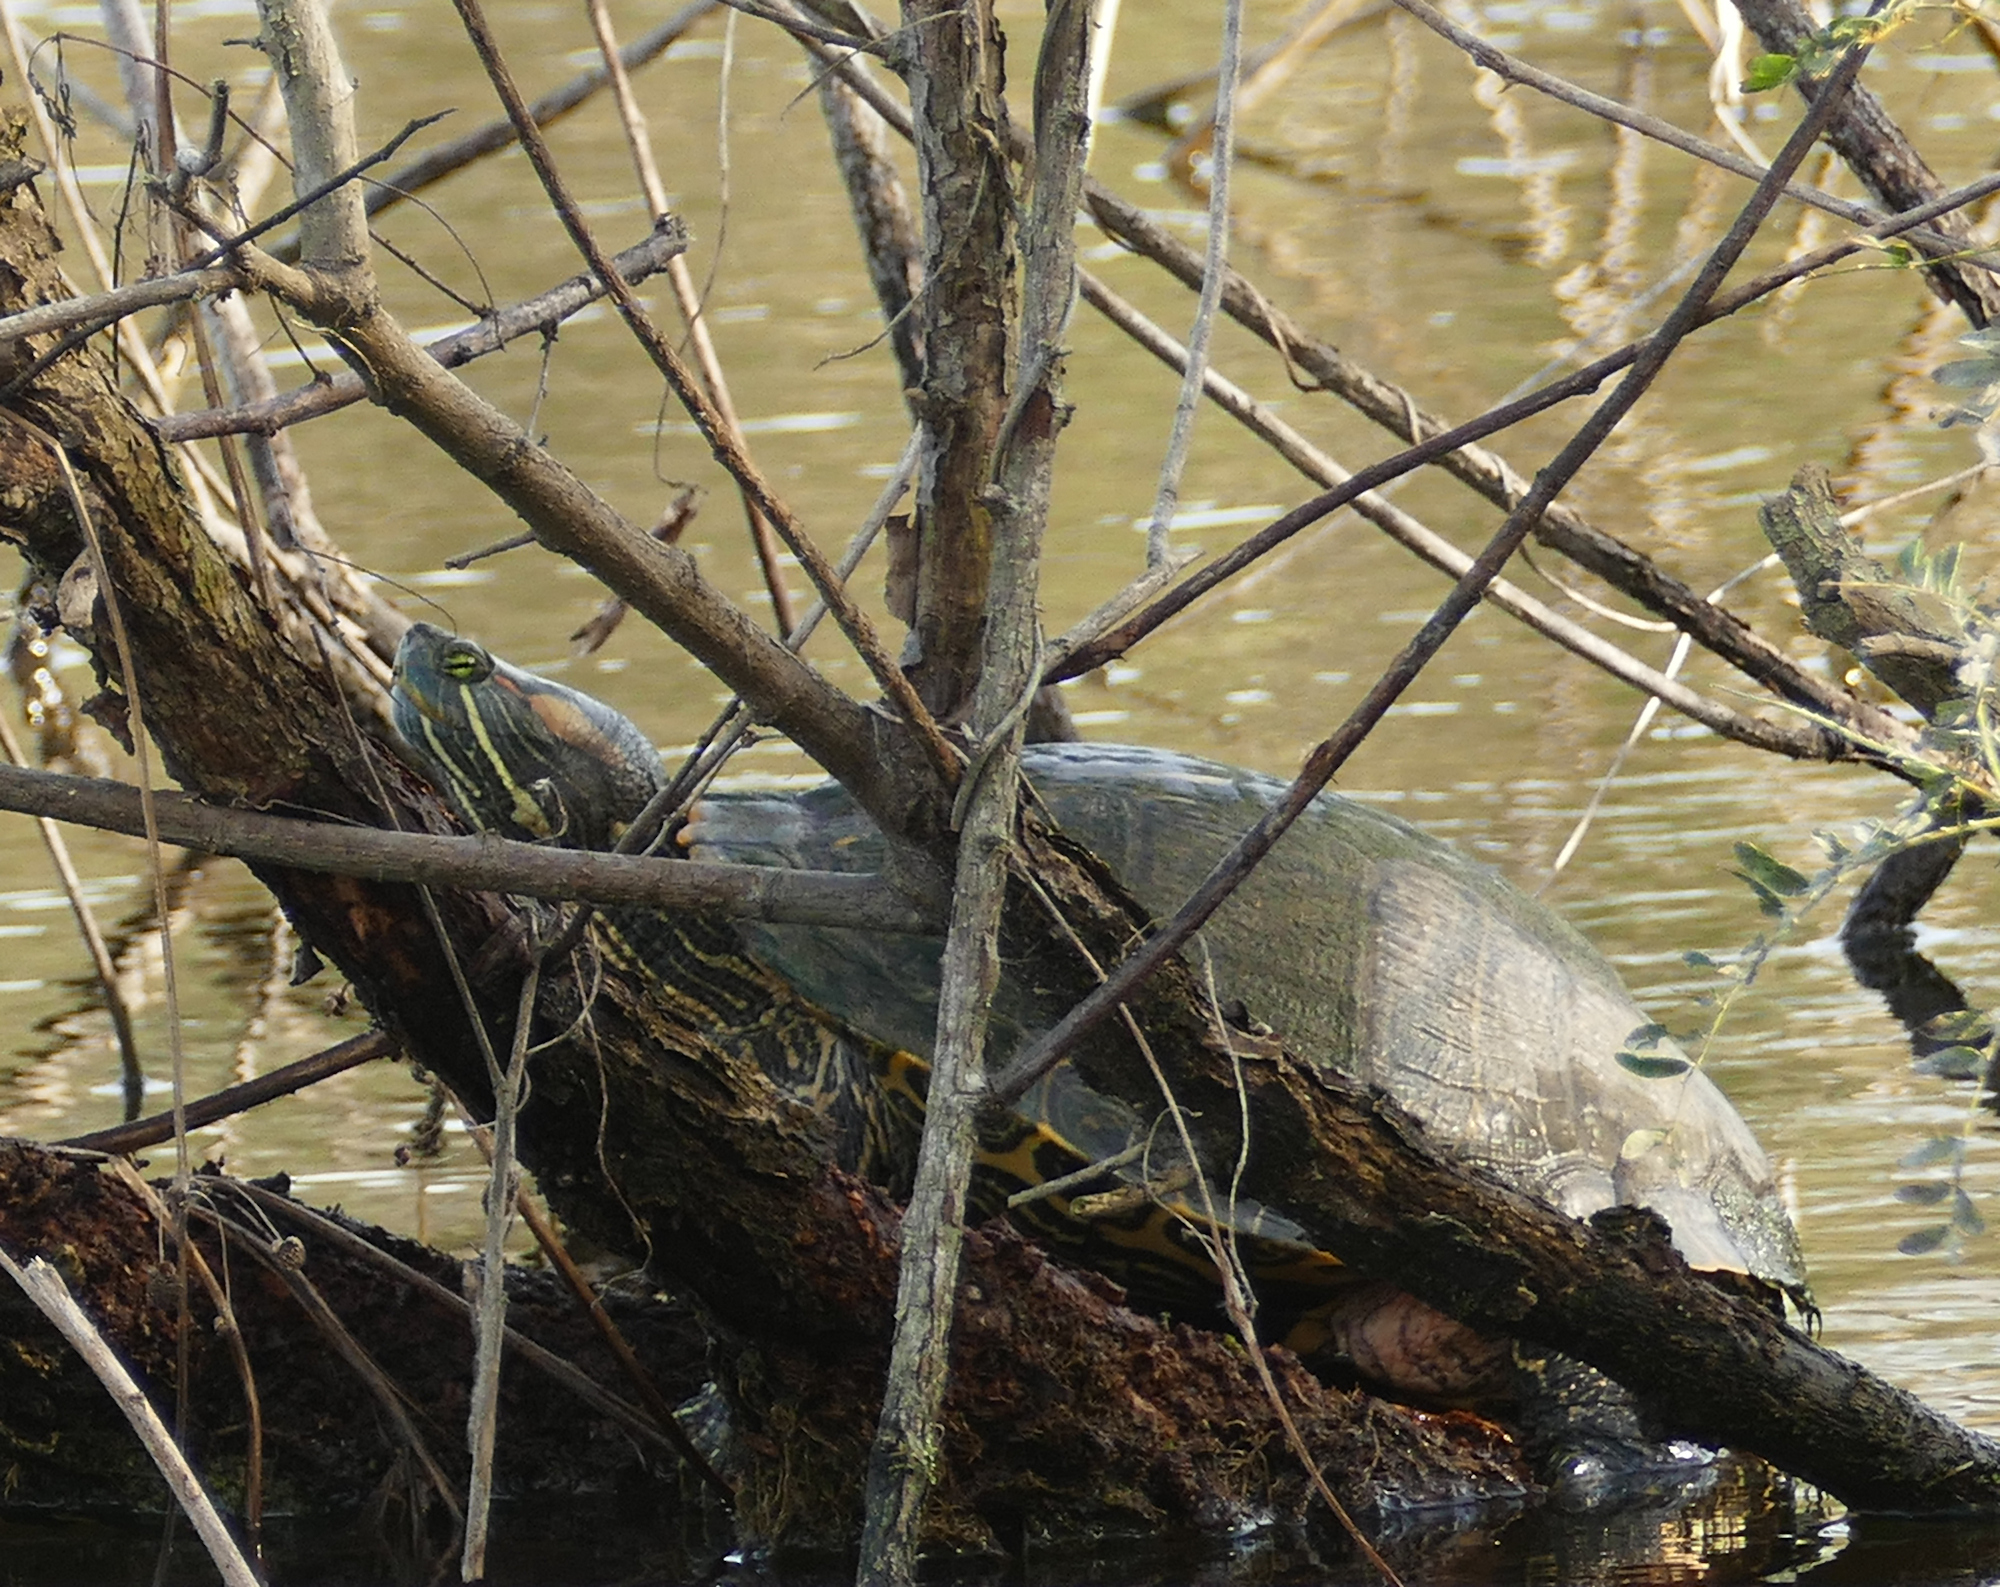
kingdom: Animalia
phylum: Chordata
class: Testudines
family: Emydidae
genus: Trachemys
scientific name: Trachemys scripta
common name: Slider
